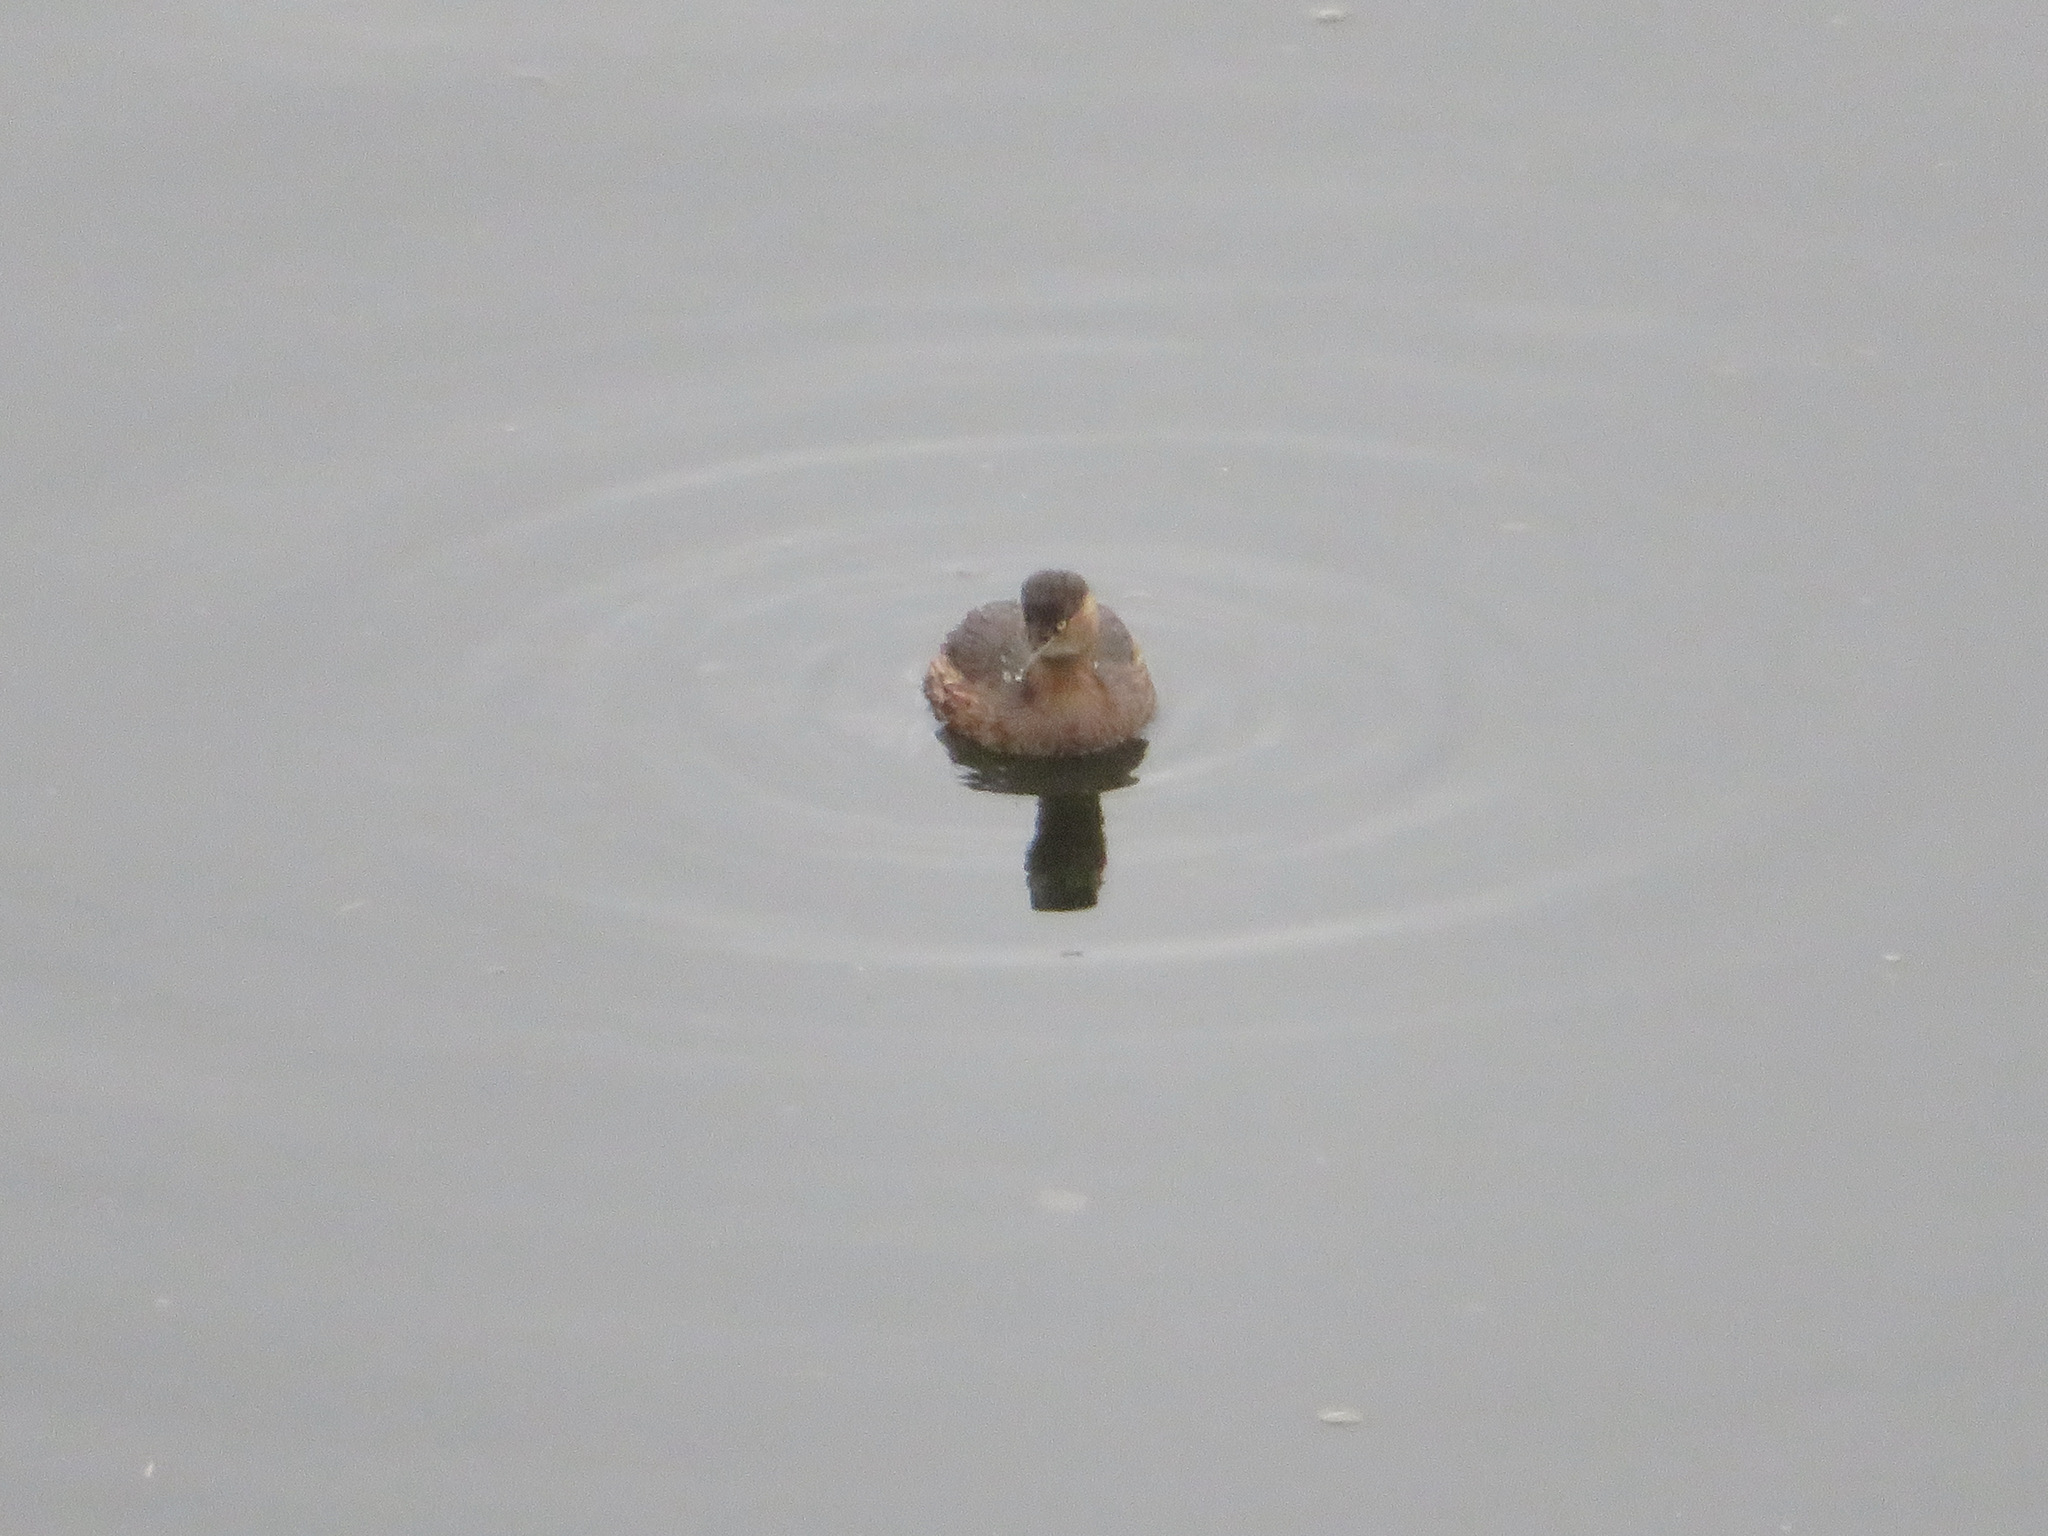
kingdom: Animalia
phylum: Chordata
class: Aves
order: Podicipediformes
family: Podicipedidae
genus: Tachybaptus
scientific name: Tachybaptus ruficollis
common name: Little grebe
